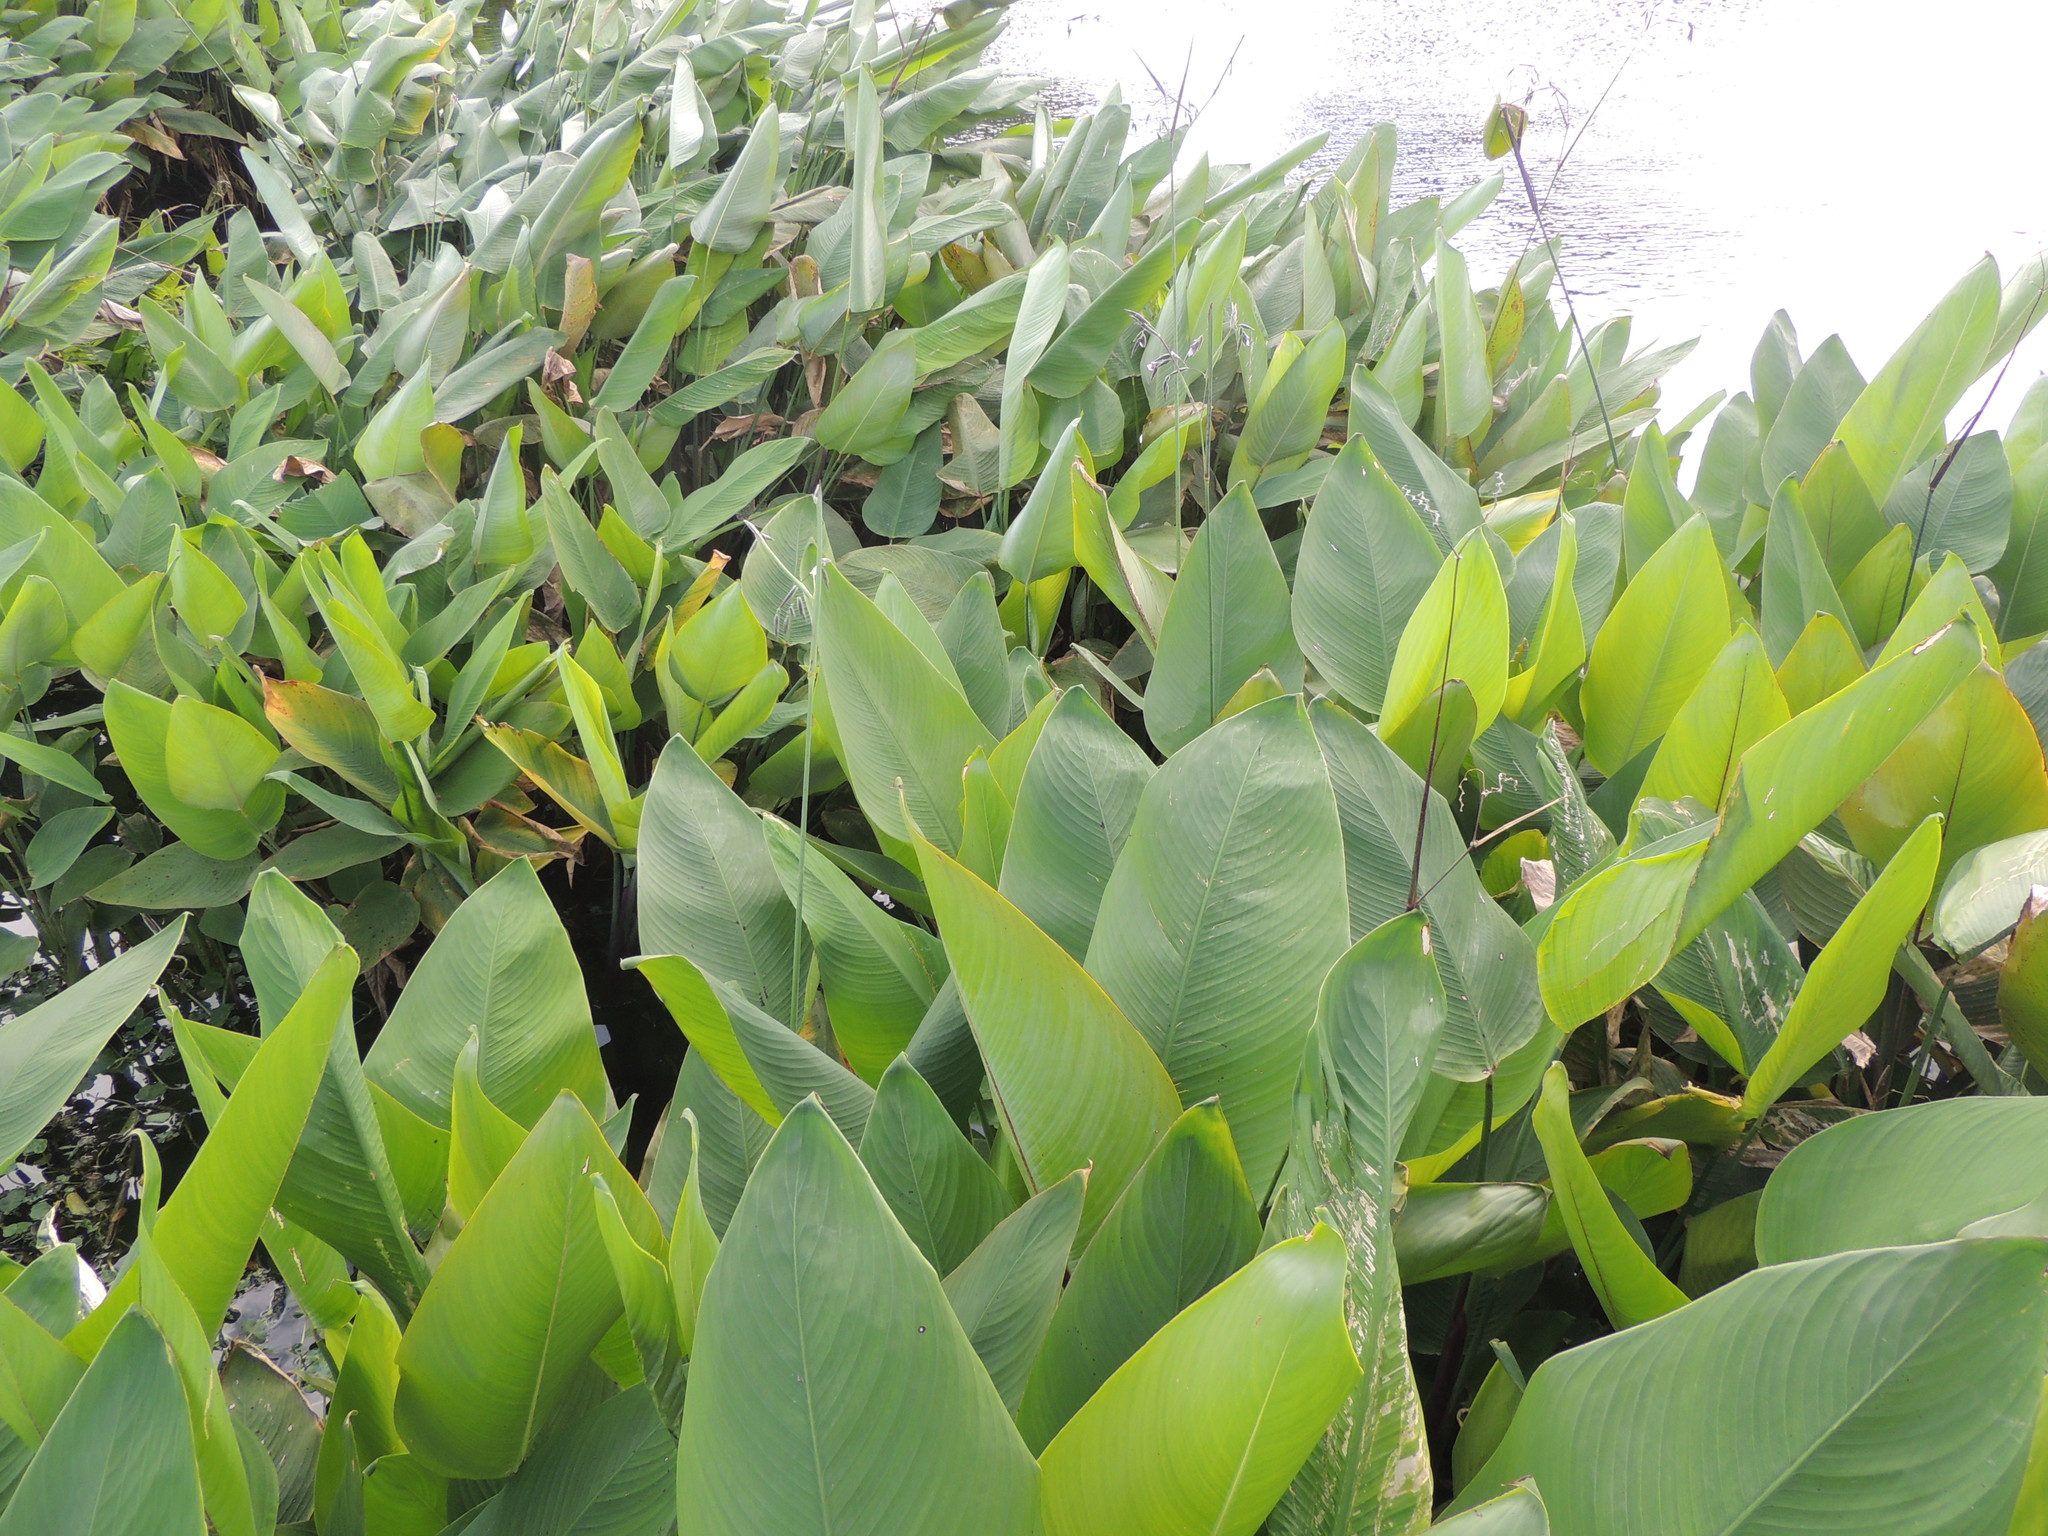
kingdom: Plantae
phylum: Tracheophyta
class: Liliopsida
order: Zingiberales
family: Marantaceae
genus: Thalia
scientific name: Thalia geniculata
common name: Arrowroot
